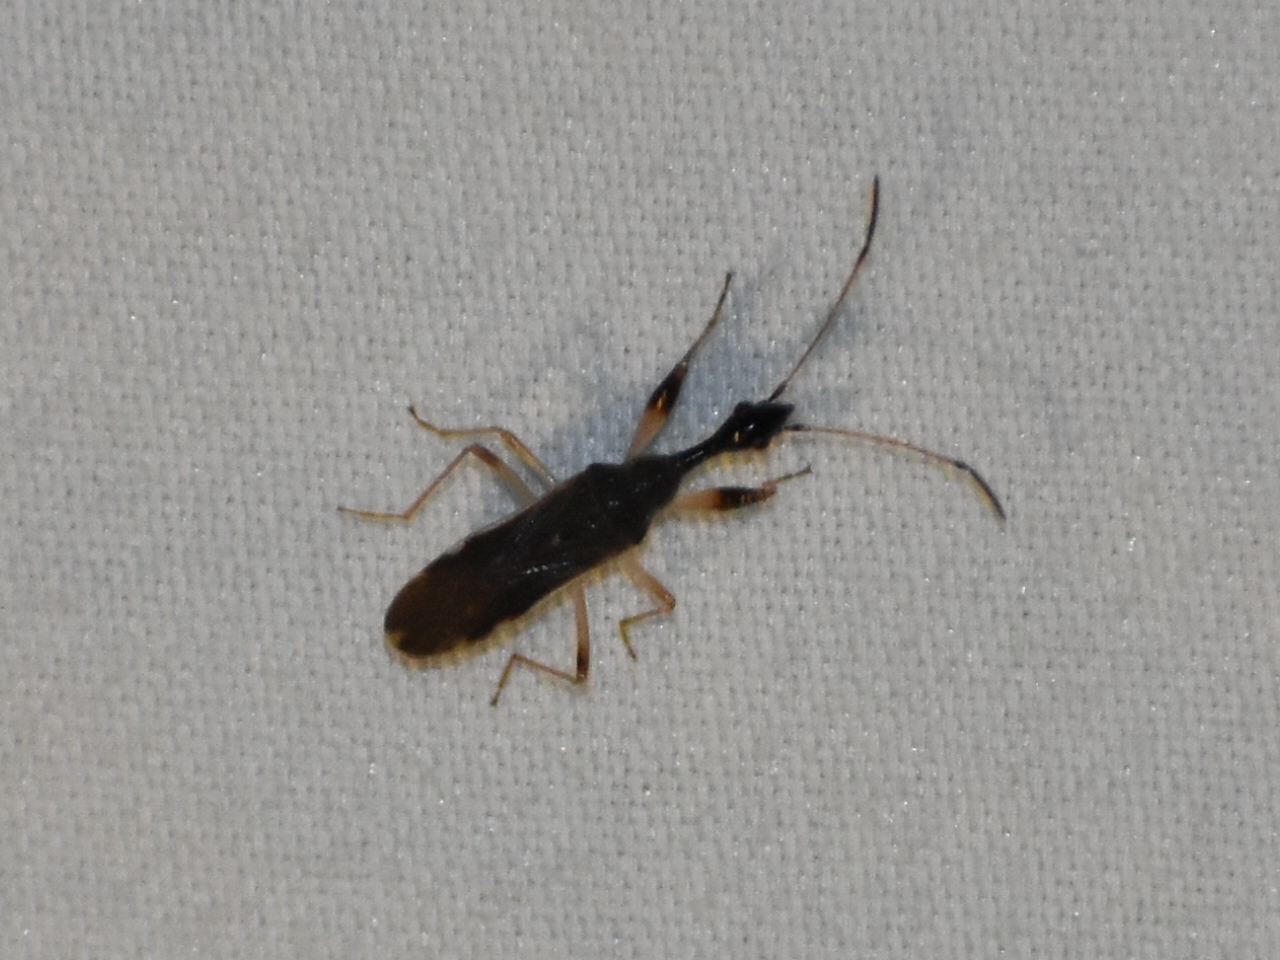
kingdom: Animalia
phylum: Arthropoda
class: Insecta
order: Hemiptera
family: Rhyparochromidae
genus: Myodocha
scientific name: Myodocha serripes
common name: Long-necked seed bug
